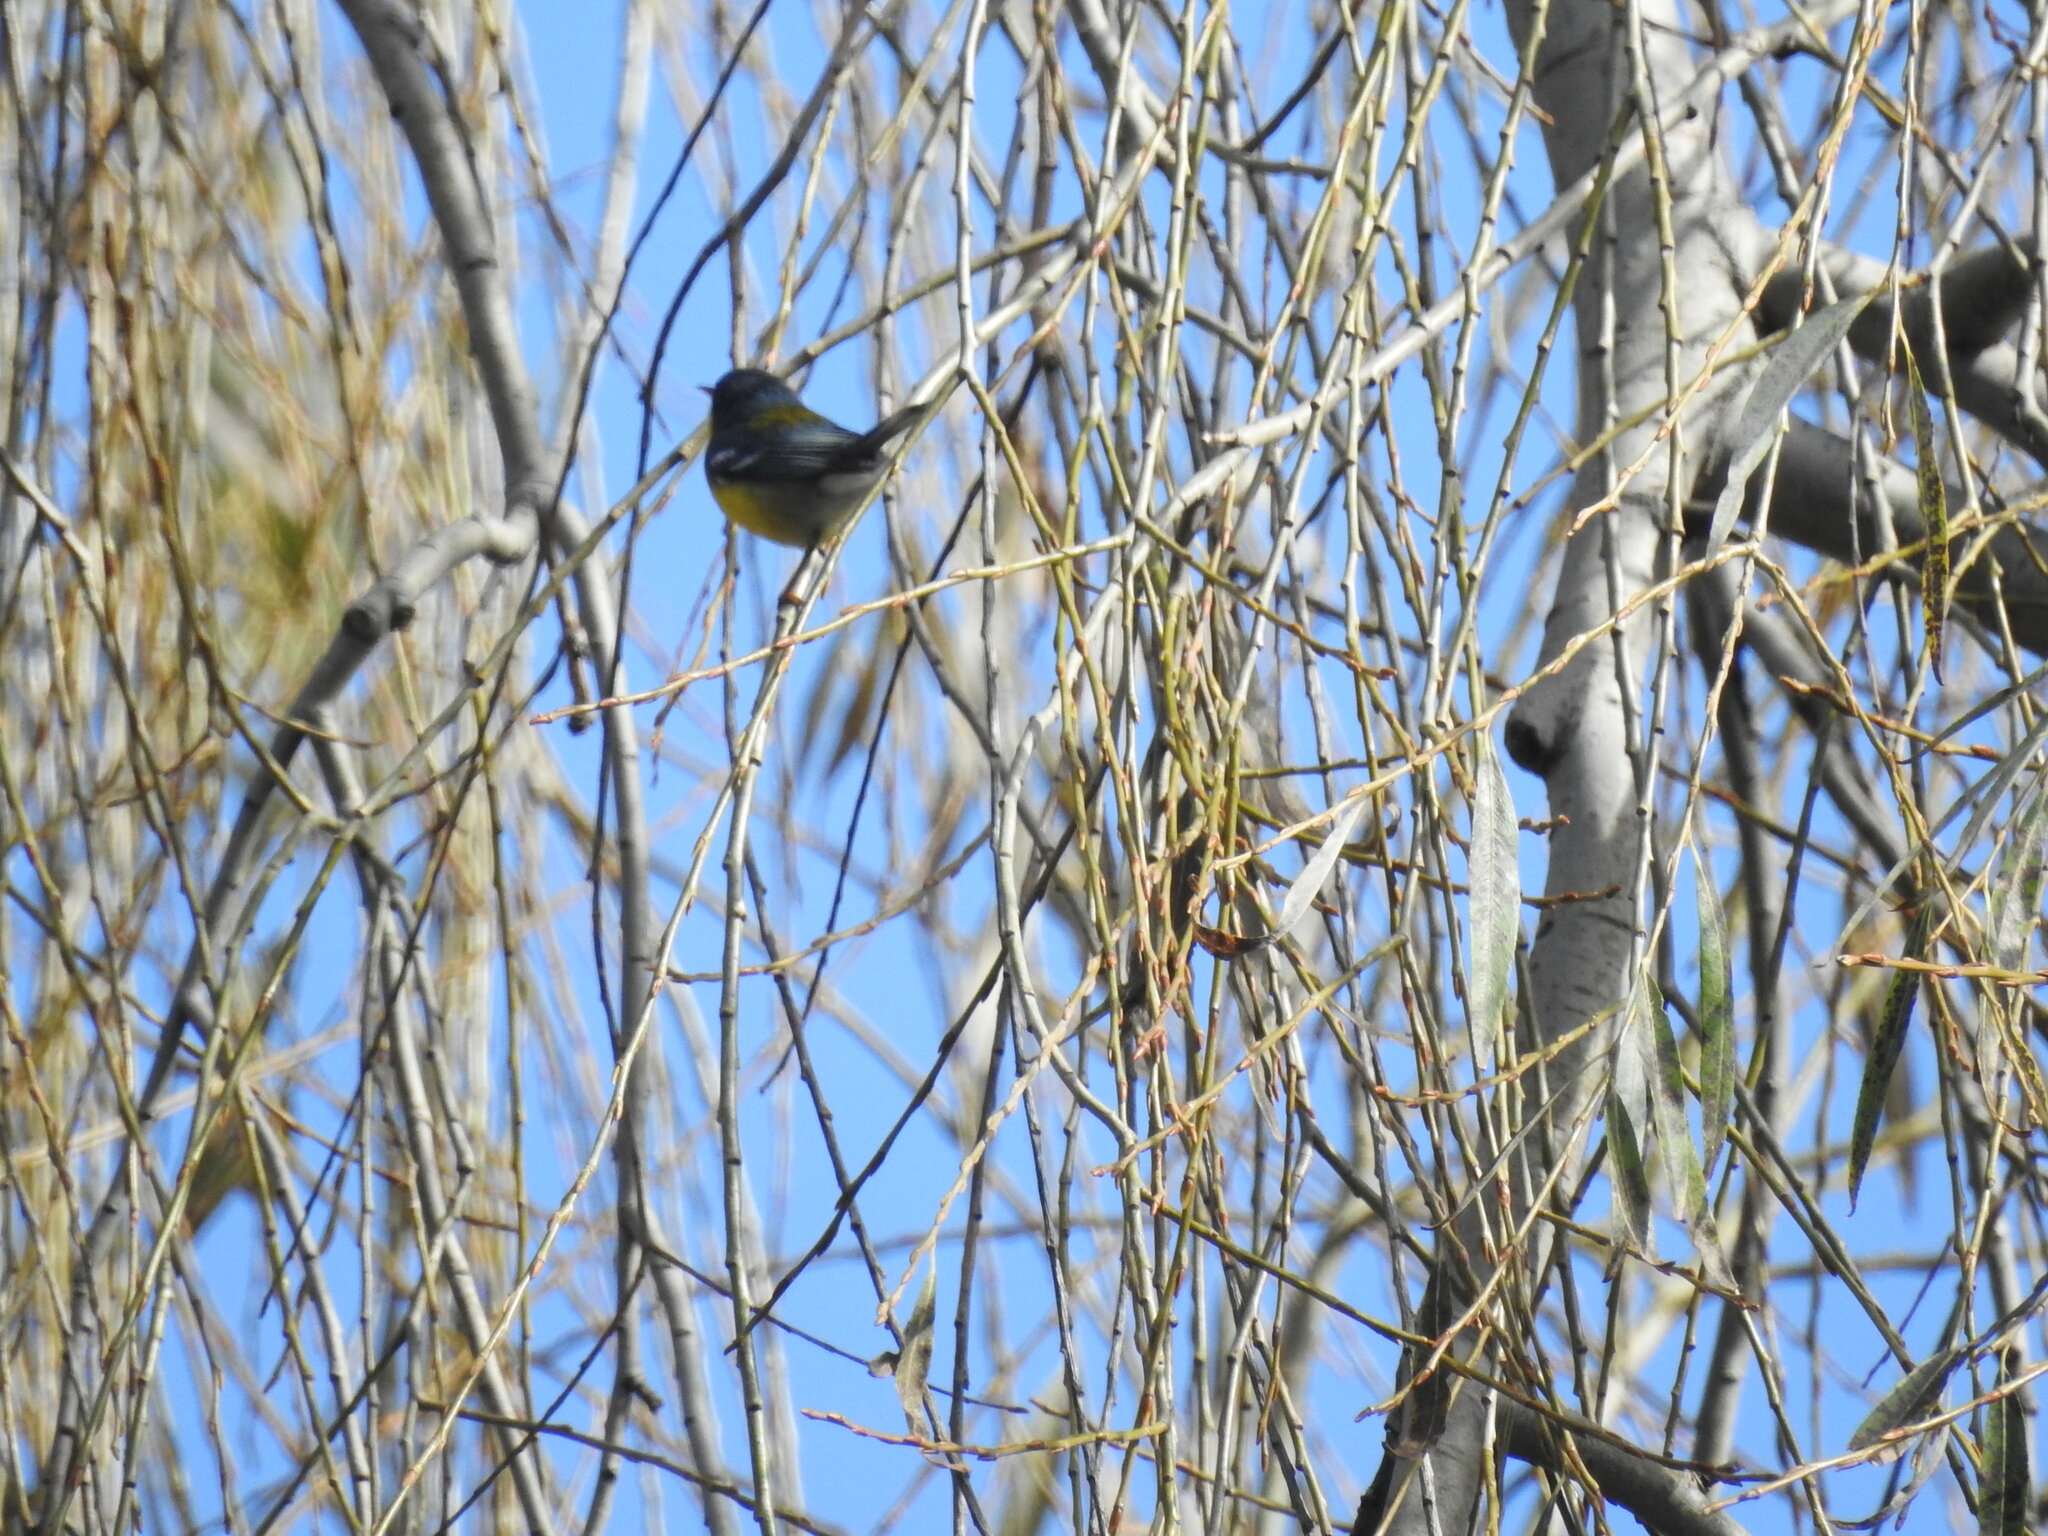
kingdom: Animalia
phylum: Chordata
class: Aves
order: Passeriformes
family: Parulidae
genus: Setophaga
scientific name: Setophaga pitiayumi
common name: Tropical parula
